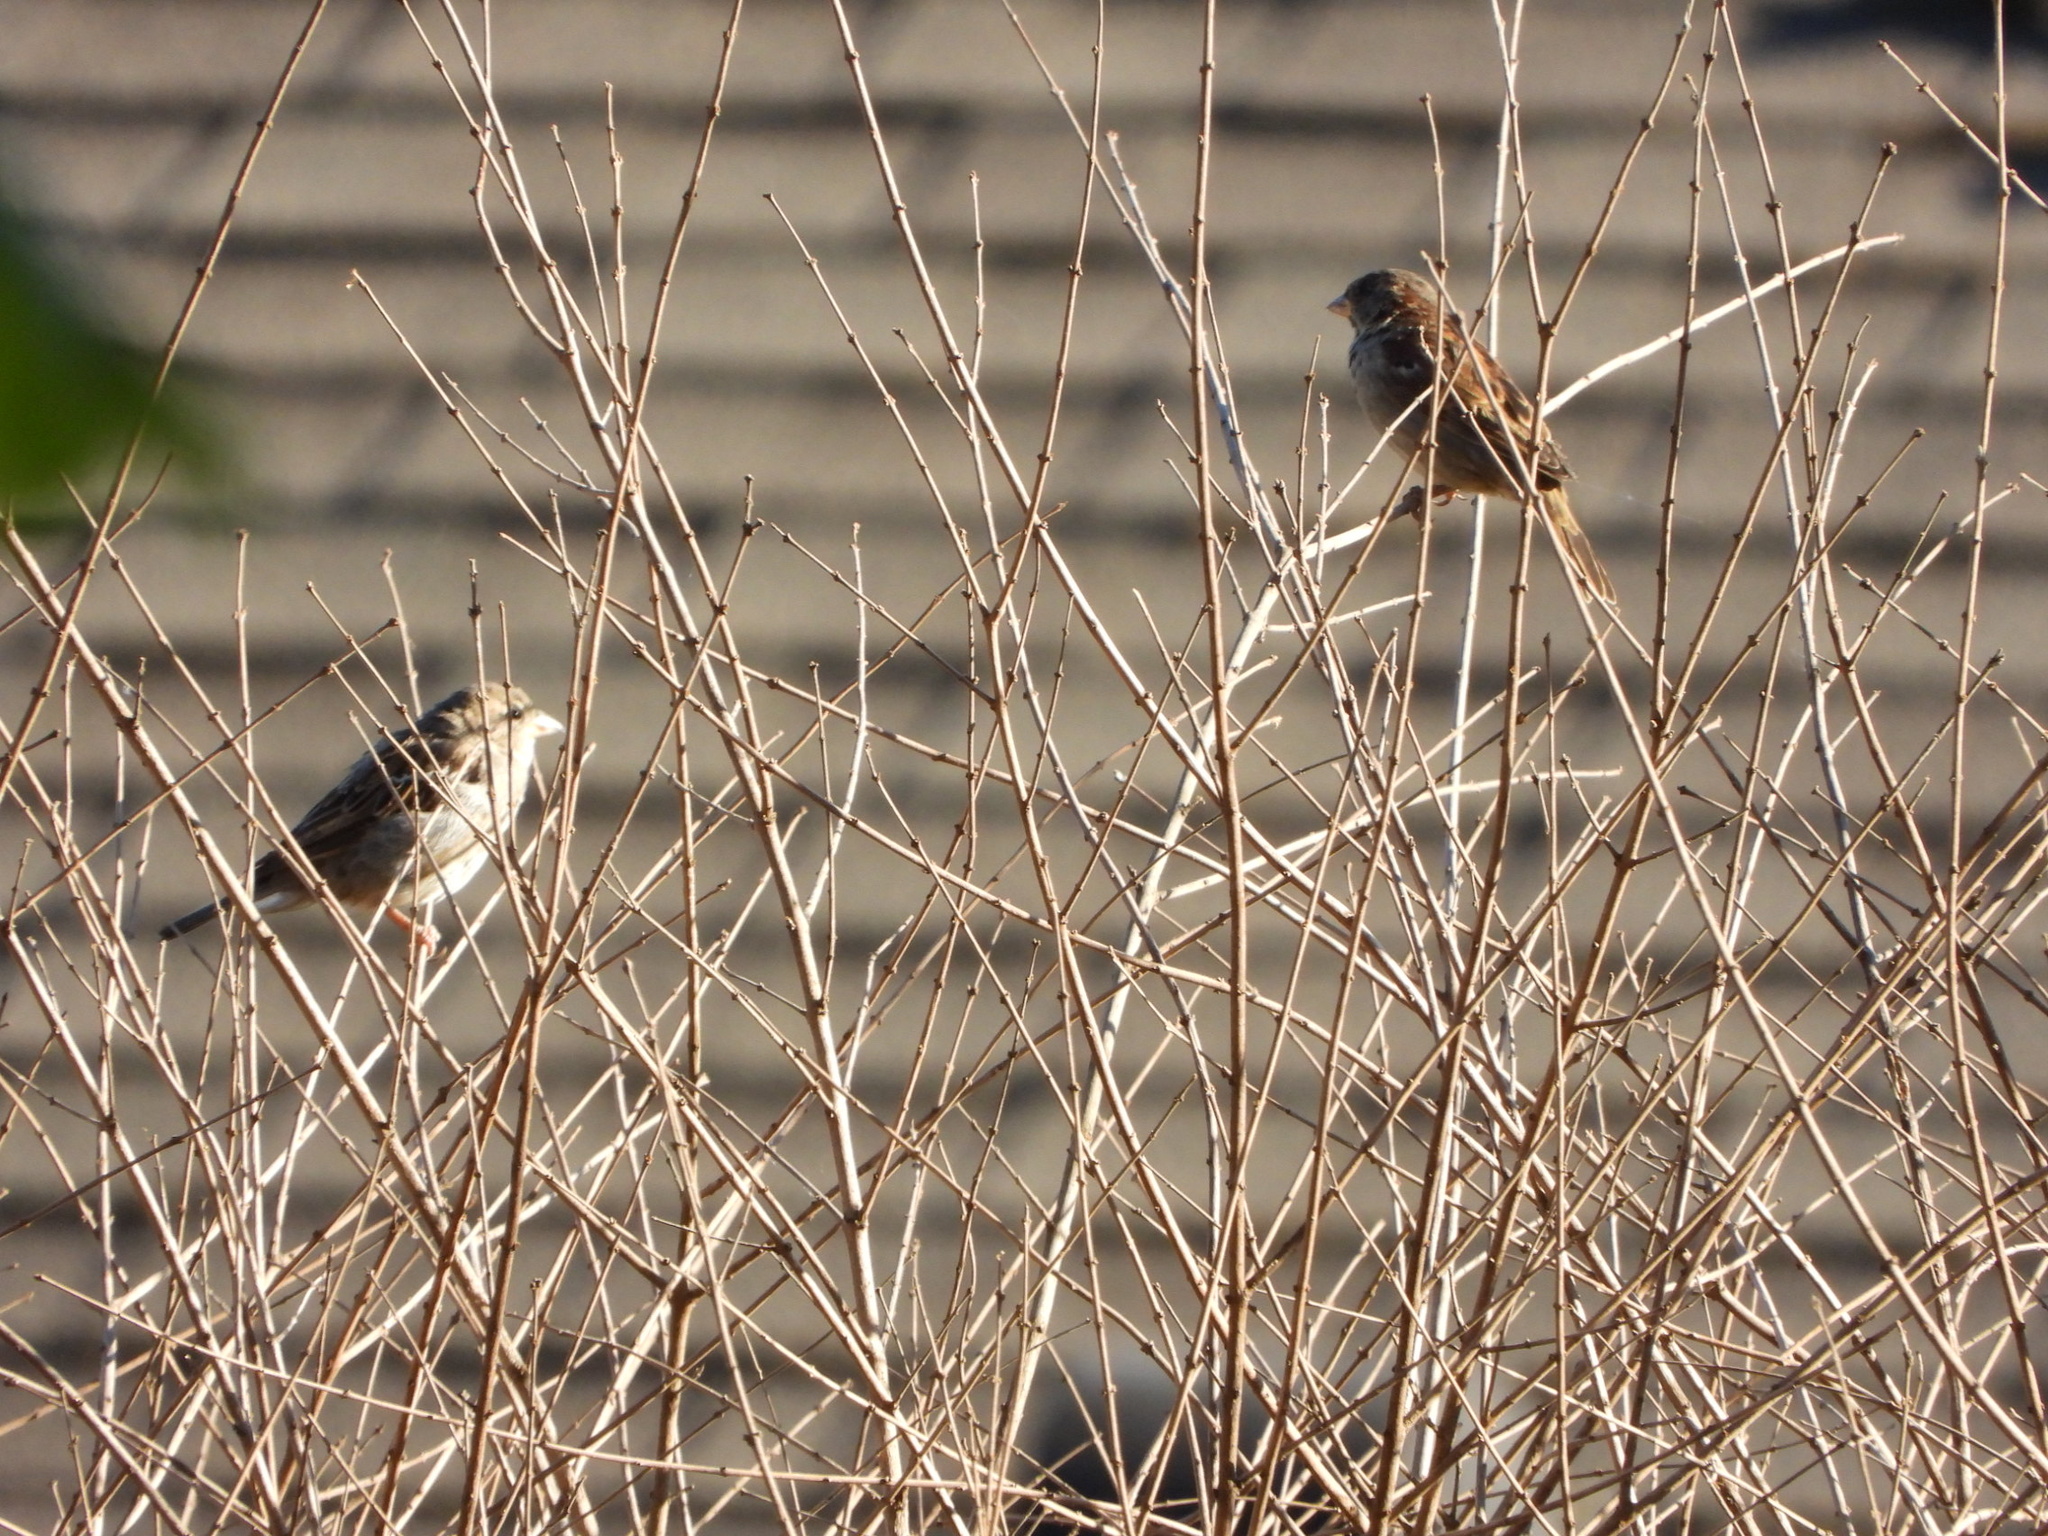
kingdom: Animalia
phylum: Chordata
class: Aves
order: Passeriformes
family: Passeridae
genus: Passer
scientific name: Passer domesticus
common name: House sparrow
